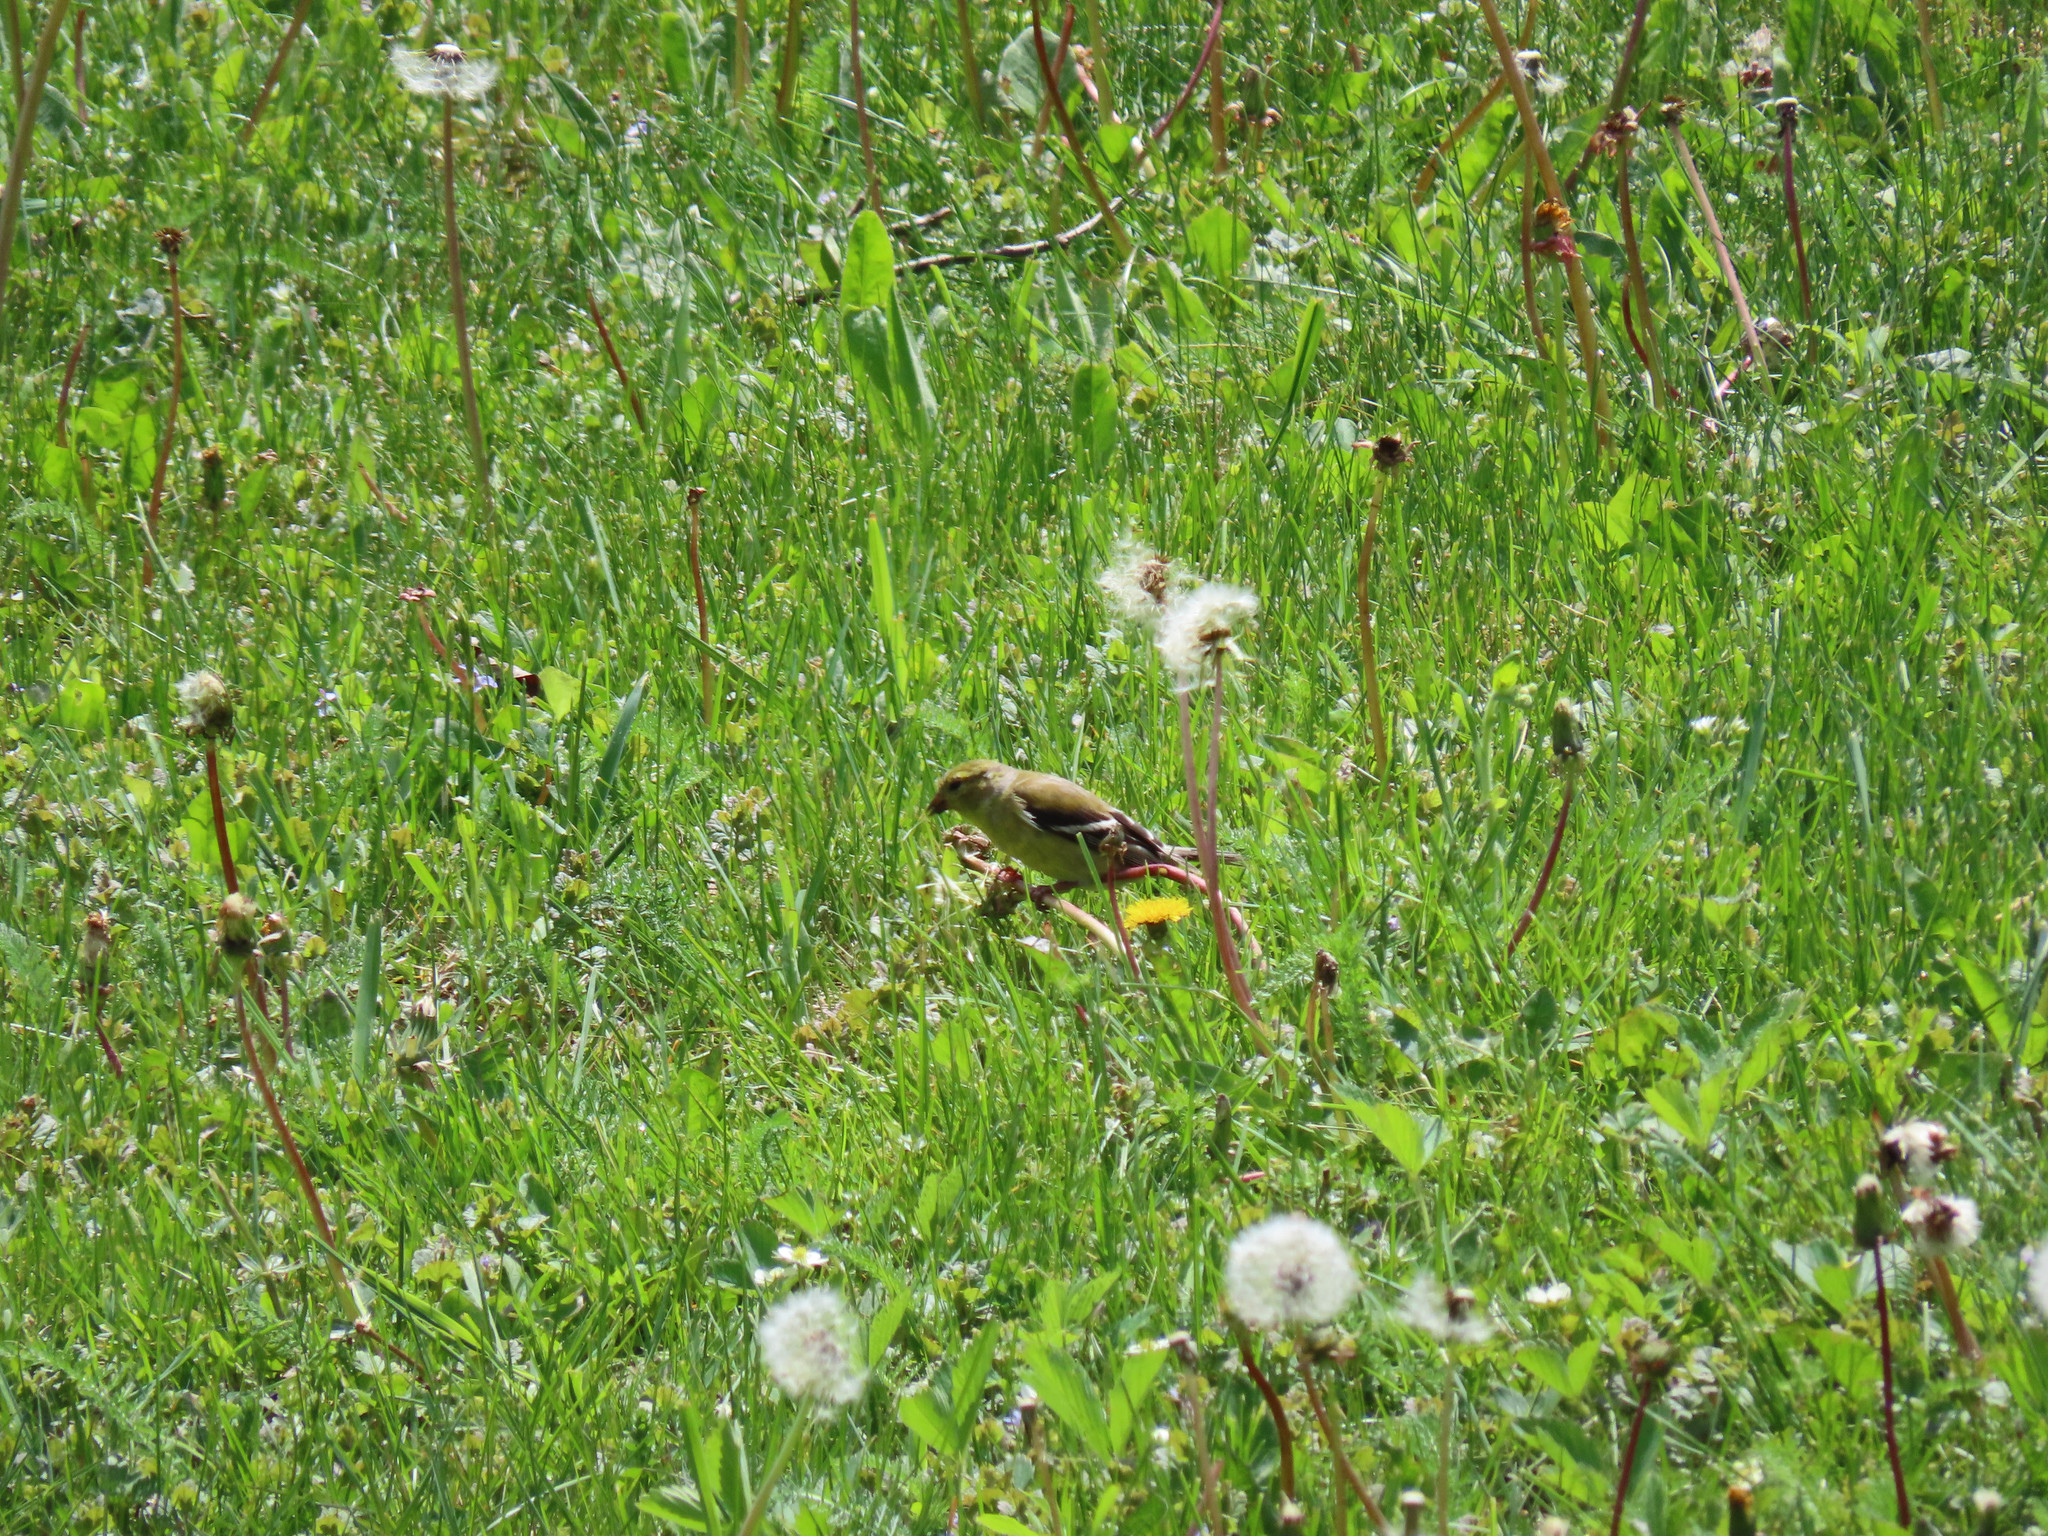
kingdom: Animalia
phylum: Chordata
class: Aves
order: Passeriformes
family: Fringillidae
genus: Spinus
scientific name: Spinus tristis
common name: American goldfinch
